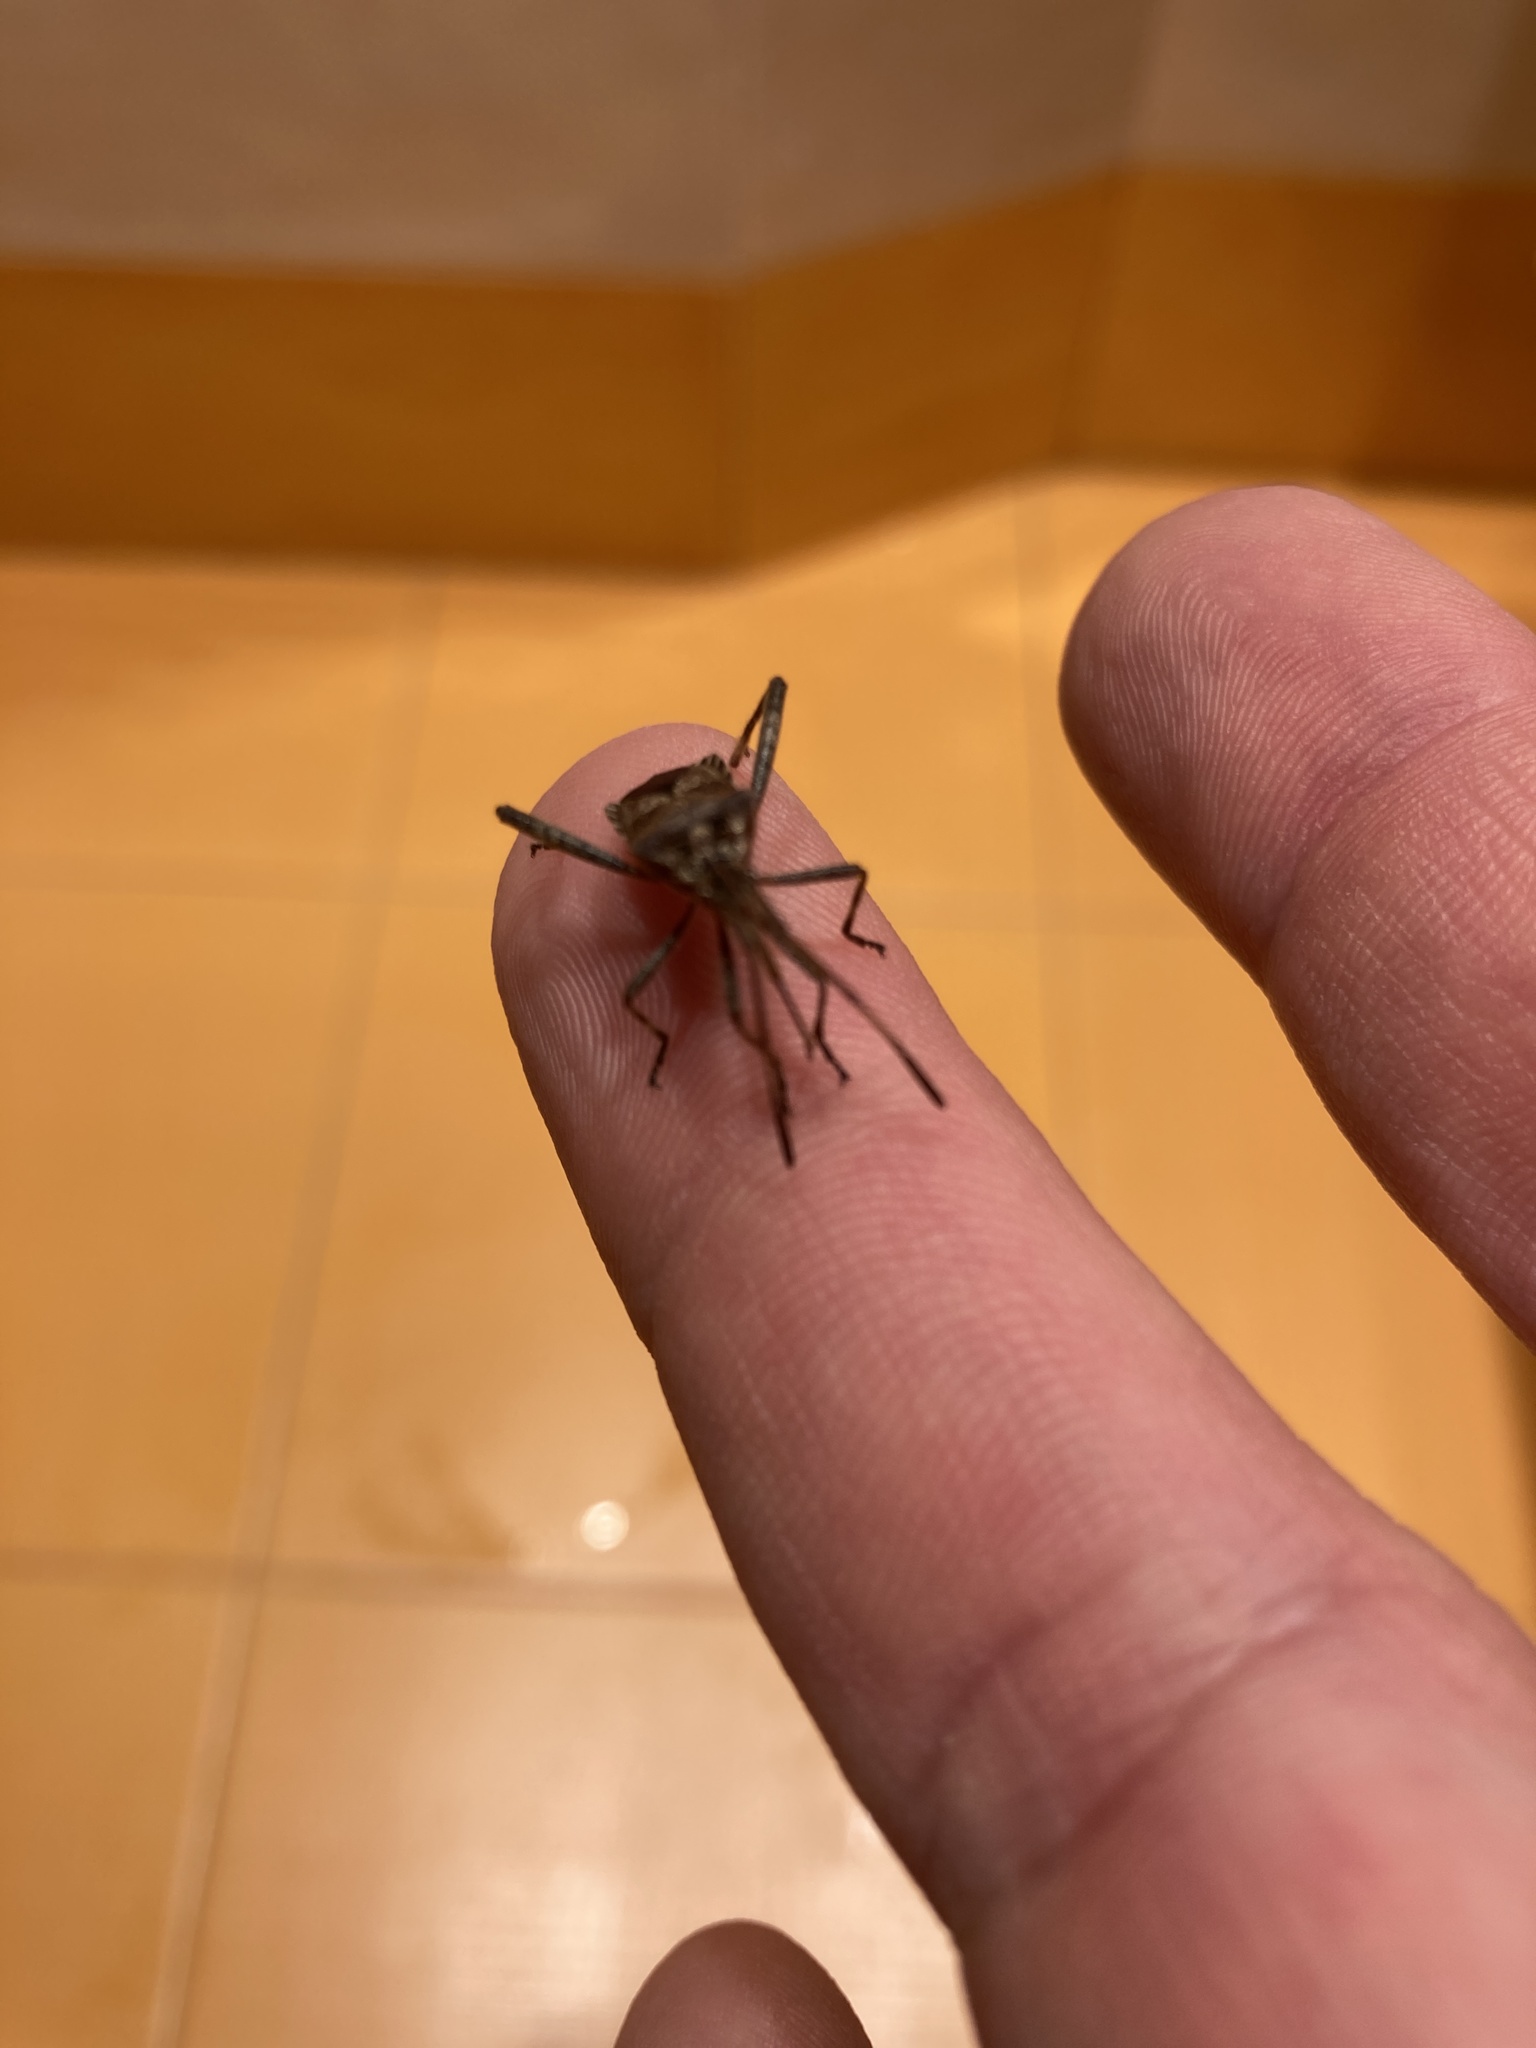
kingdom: Animalia
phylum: Arthropoda
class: Insecta
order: Hemiptera
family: Coreidae
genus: Leptoglossus
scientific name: Leptoglossus occidentalis
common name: Western conifer-seed bug
